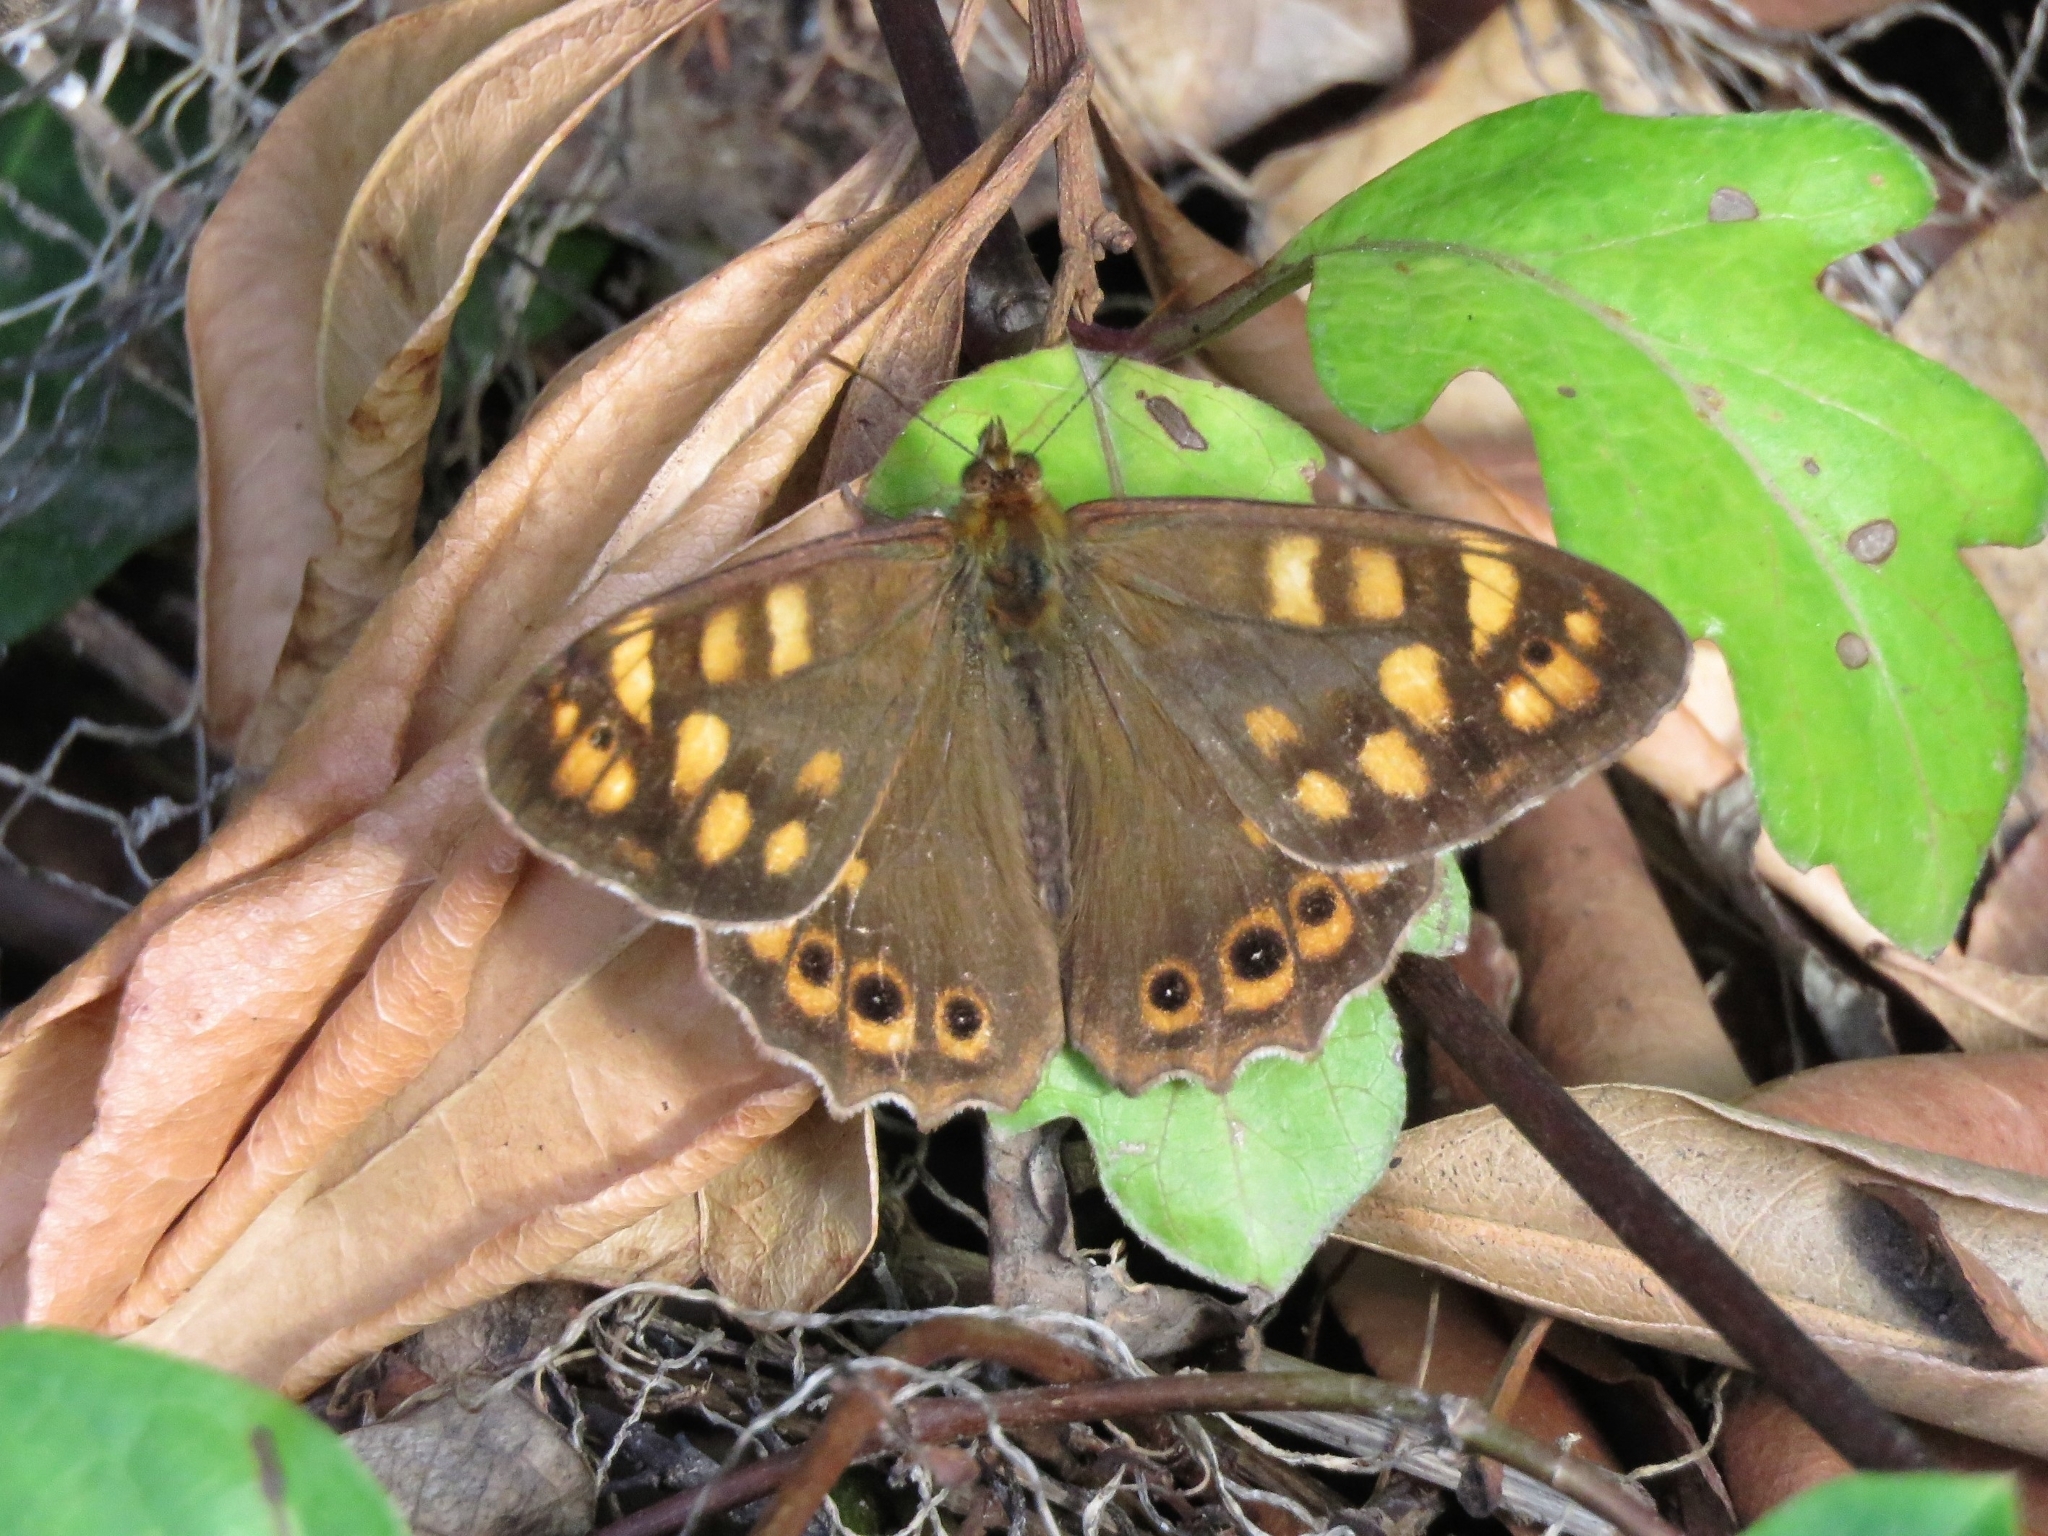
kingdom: Animalia
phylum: Arthropoda
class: Insecta
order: Lepidoptera
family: Nymphalidae
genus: Pararge
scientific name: Pararge aegeria
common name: Speckled wood
